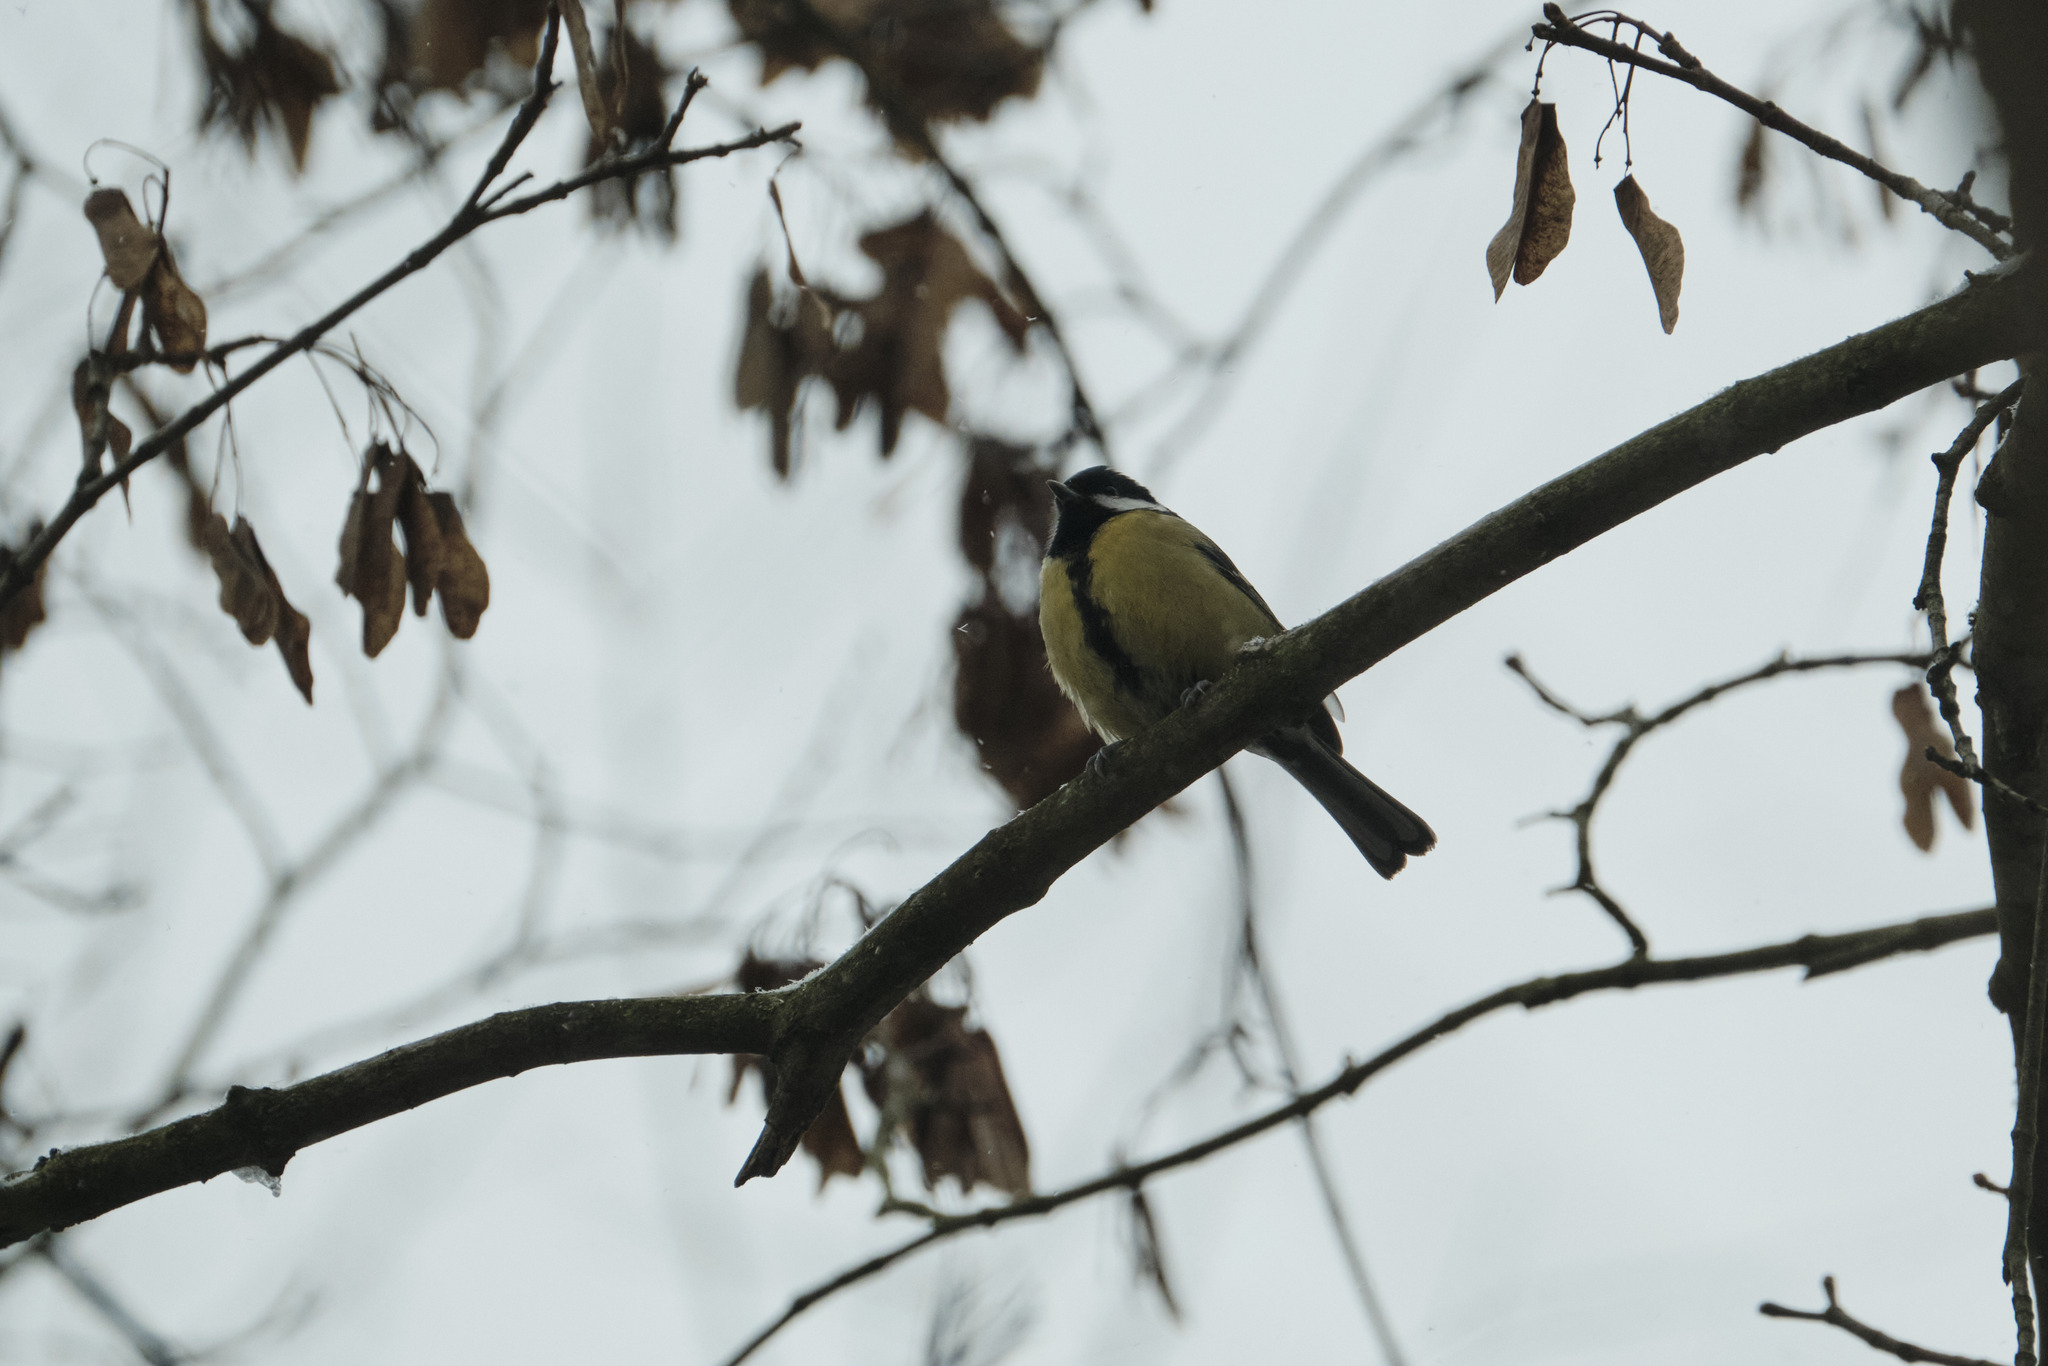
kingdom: Animalia
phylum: Chordata
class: Aves
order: Passeriformes
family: Paridae
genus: Parus
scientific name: Parus major
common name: Great tit
